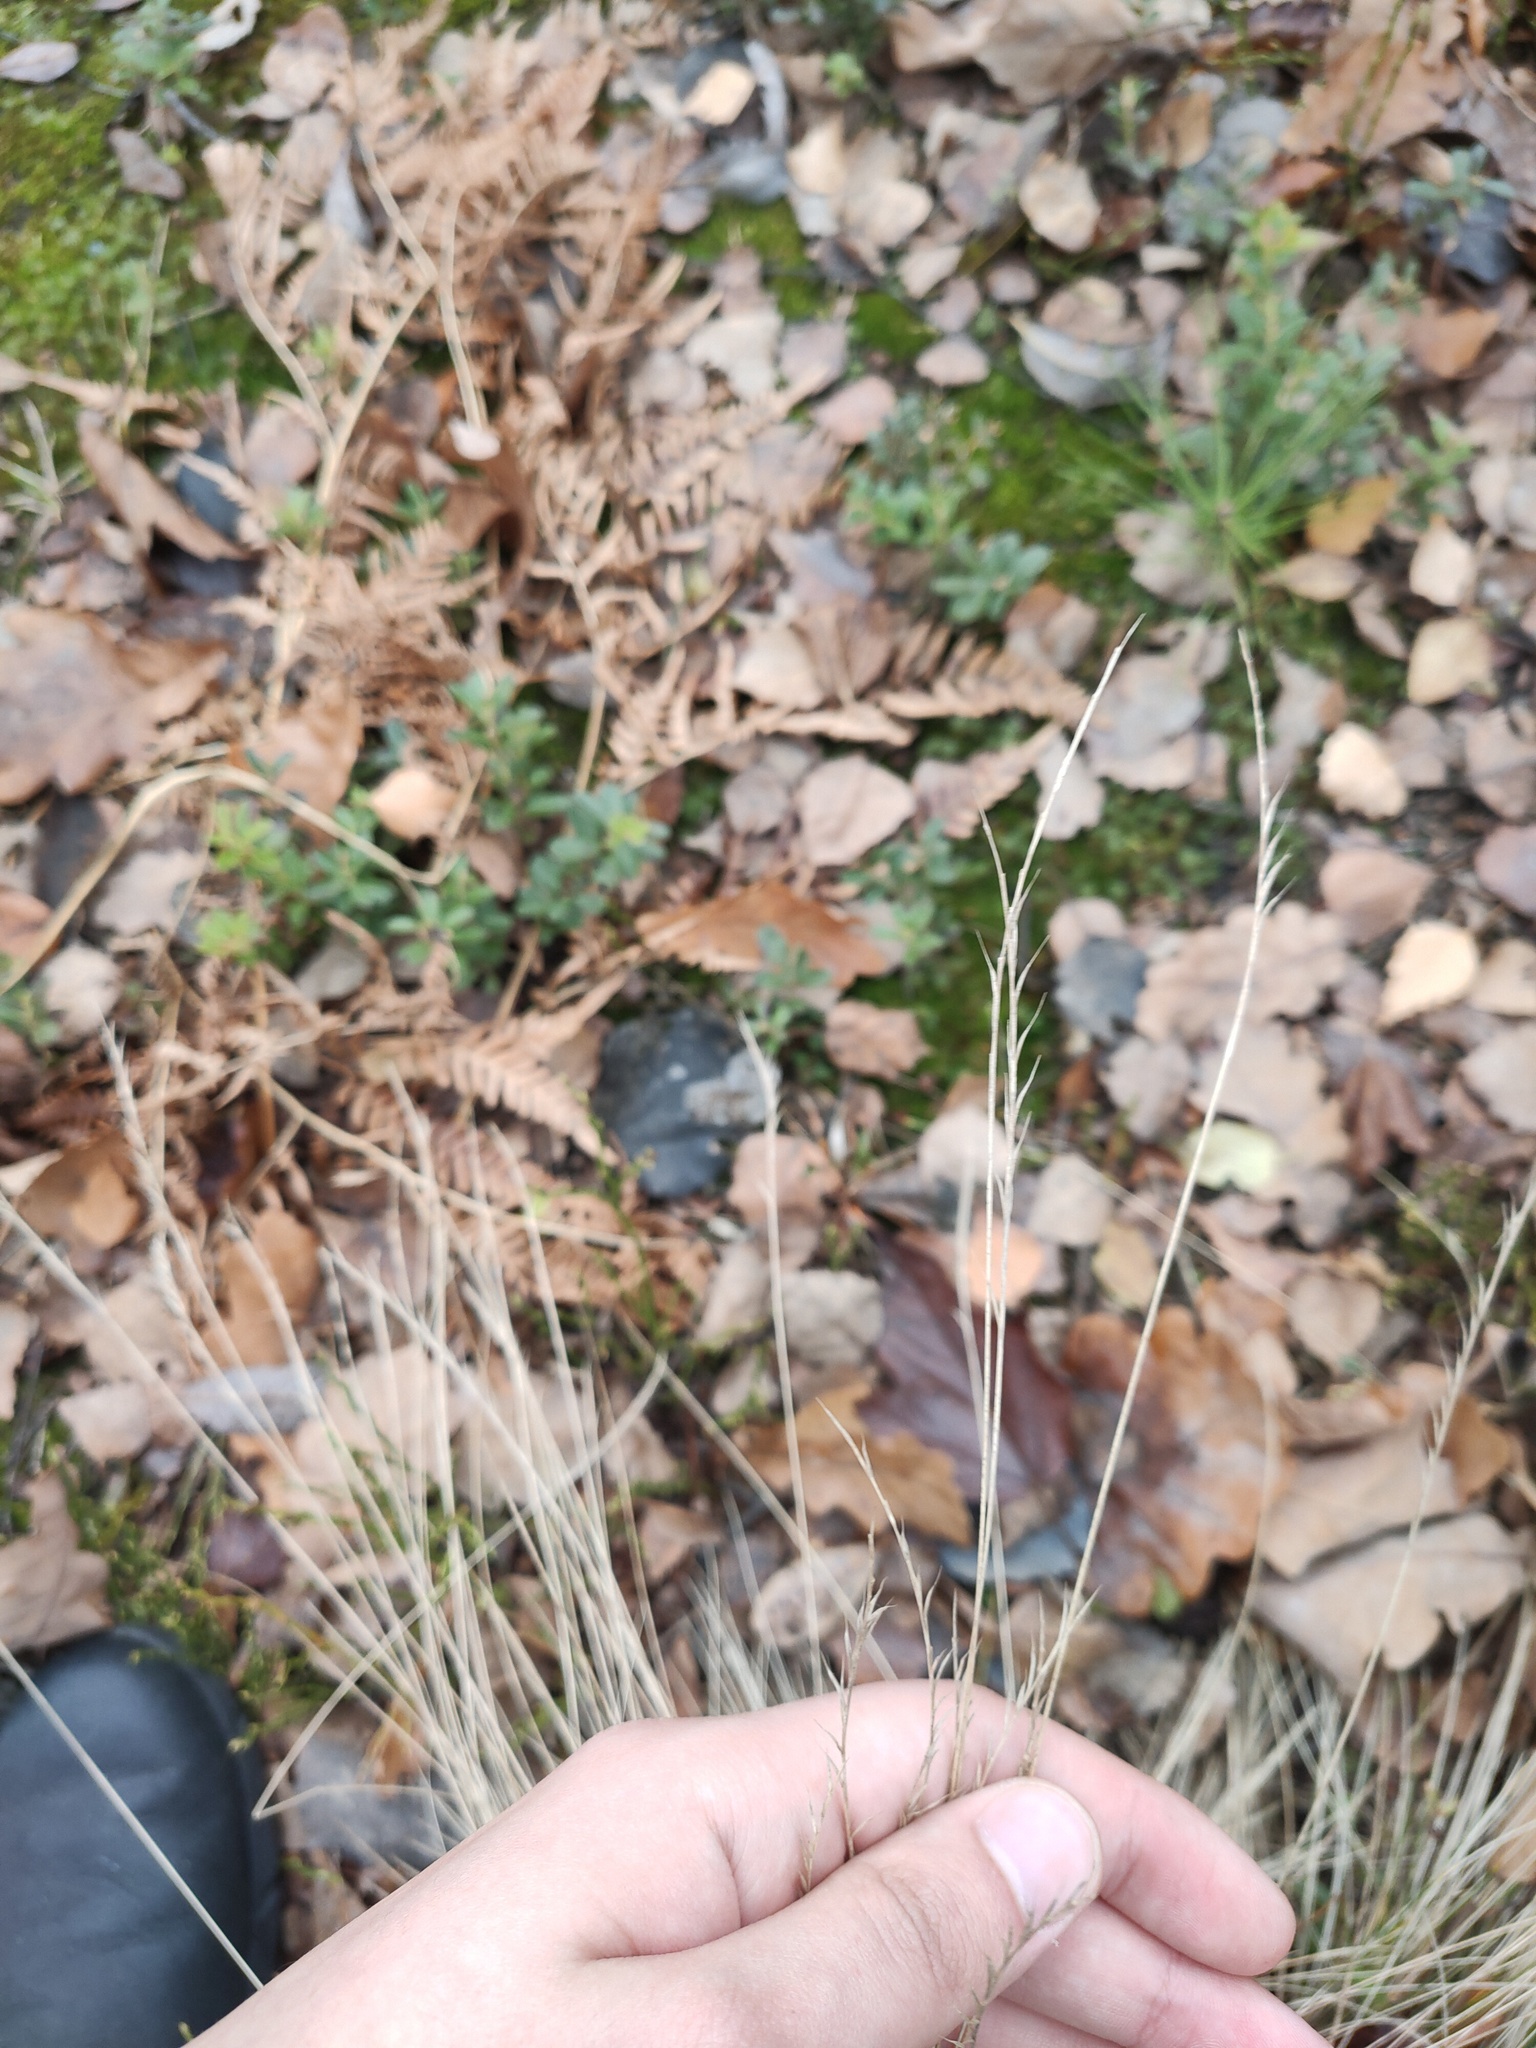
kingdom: Plantae
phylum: Tracheophyta
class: Liliopsida
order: Poales
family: Poaceae
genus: Nardus
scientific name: Nardus stricta
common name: Mat-grass
